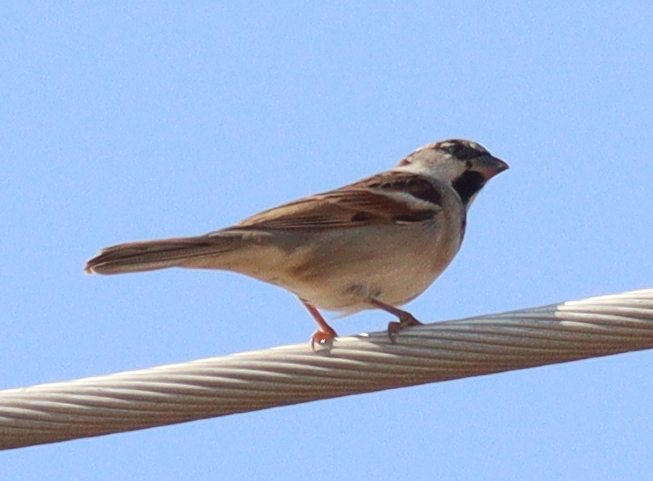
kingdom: Animalia
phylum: Chordata
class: Aves
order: Passeriformes
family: Passeridae
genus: Passer
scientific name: Passer domesticus
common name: House sparrow
